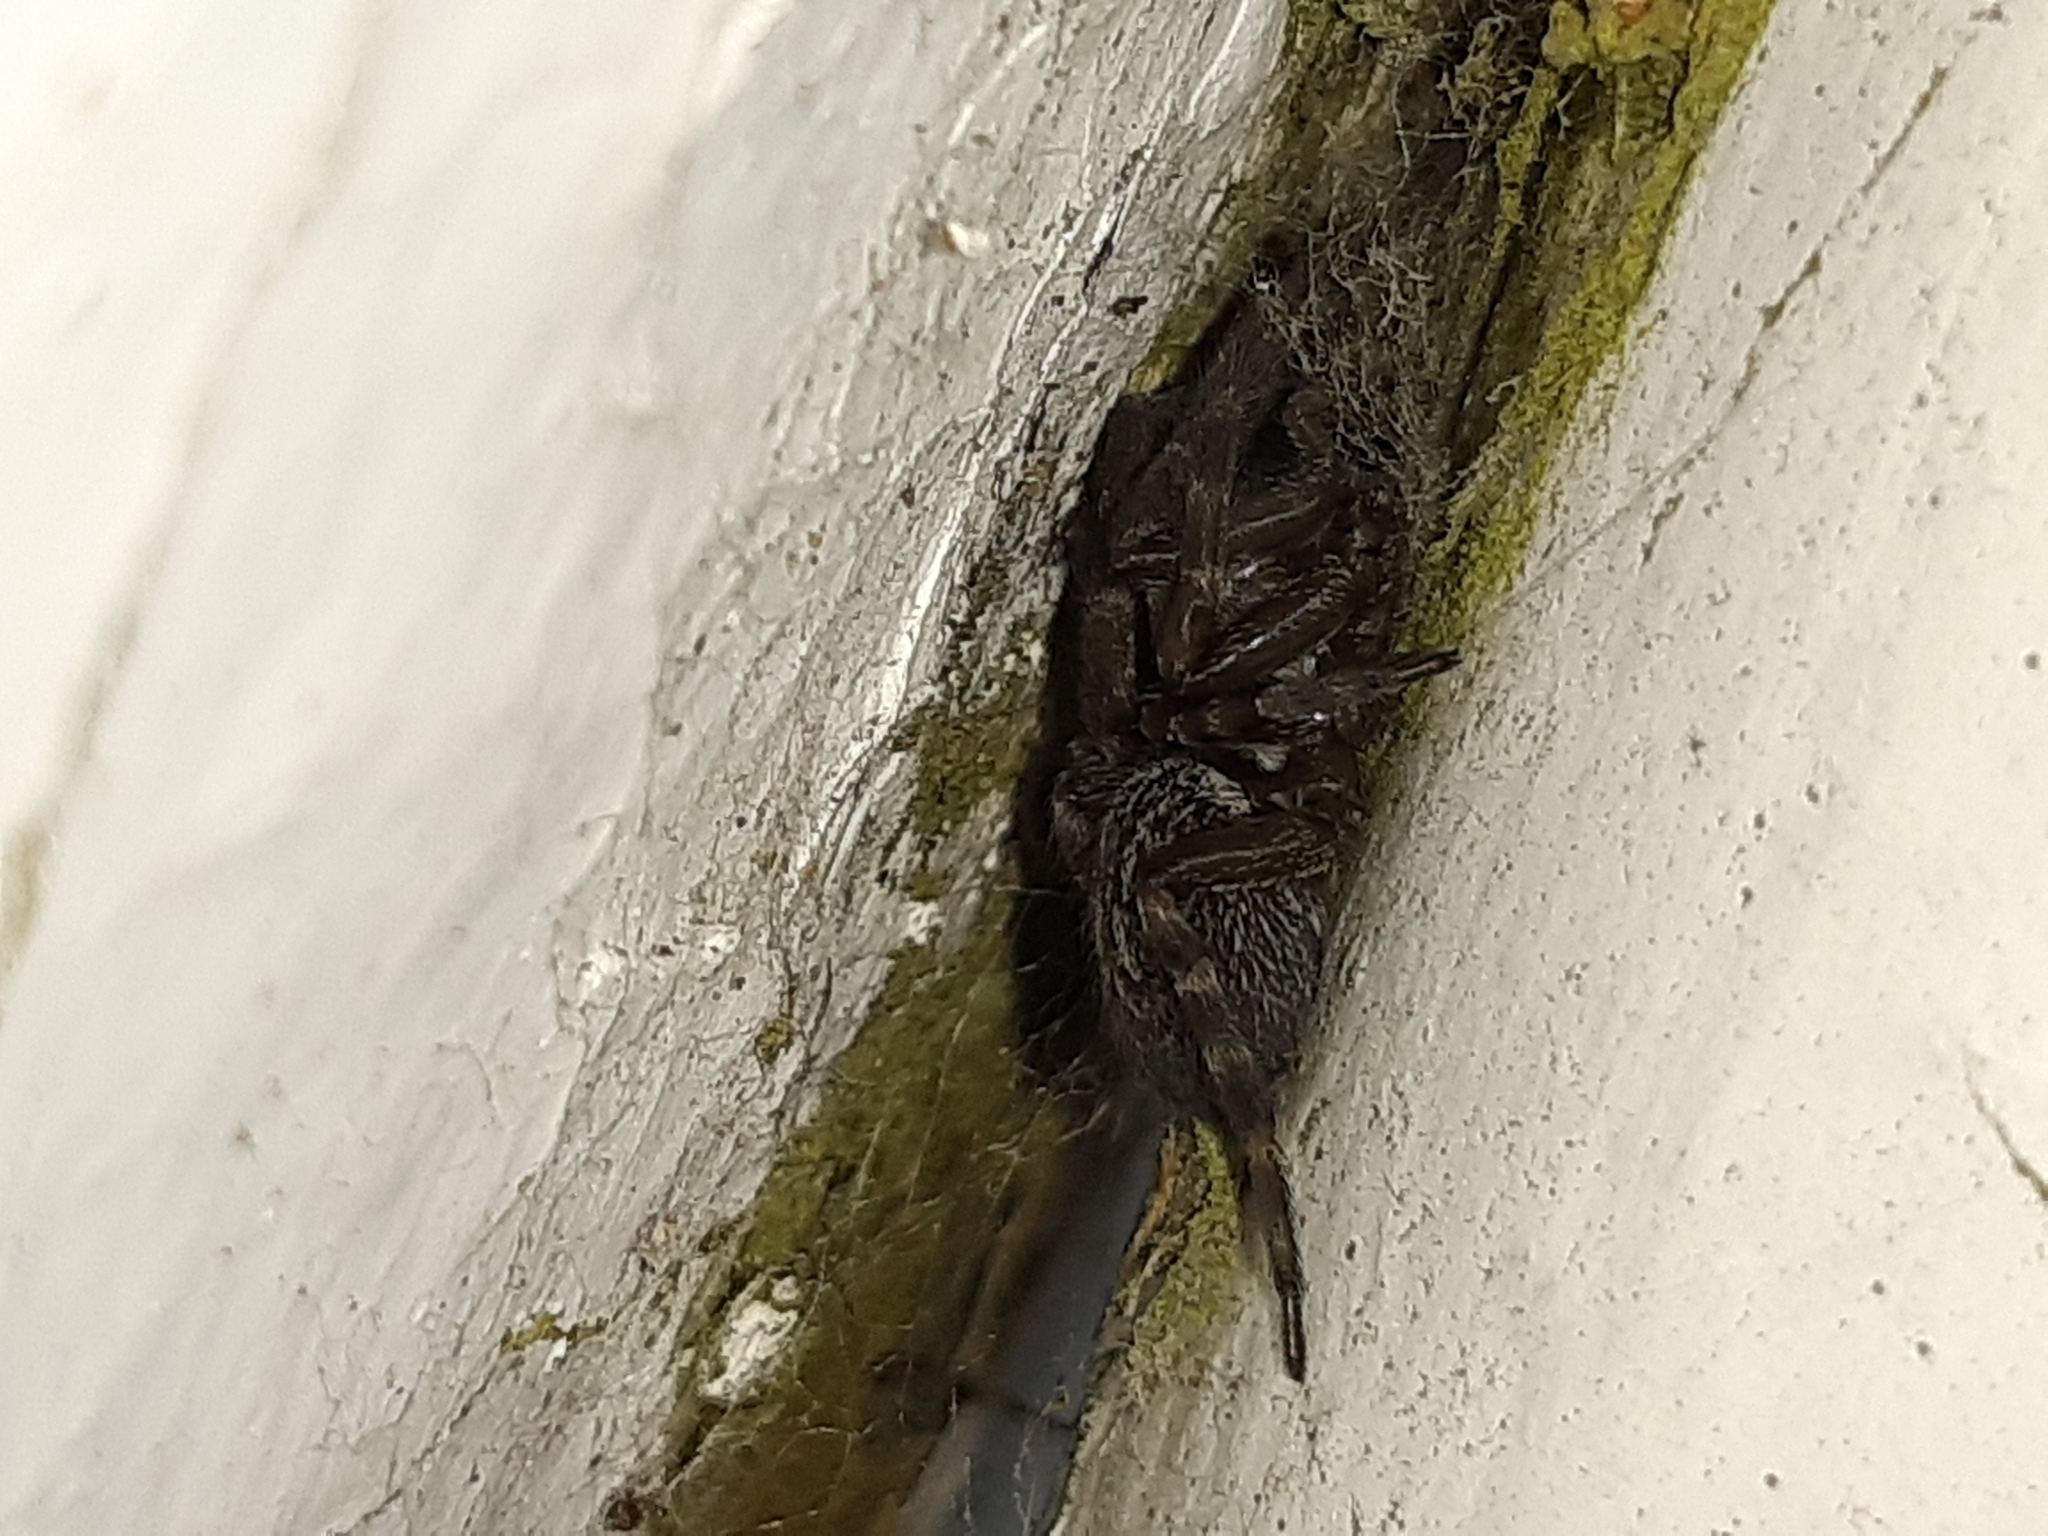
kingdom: Animalia
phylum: Arthropoda
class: Arachnida
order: Araneae
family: Desidae
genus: Badumna
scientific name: Badumna longinqua
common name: Gray house spider
